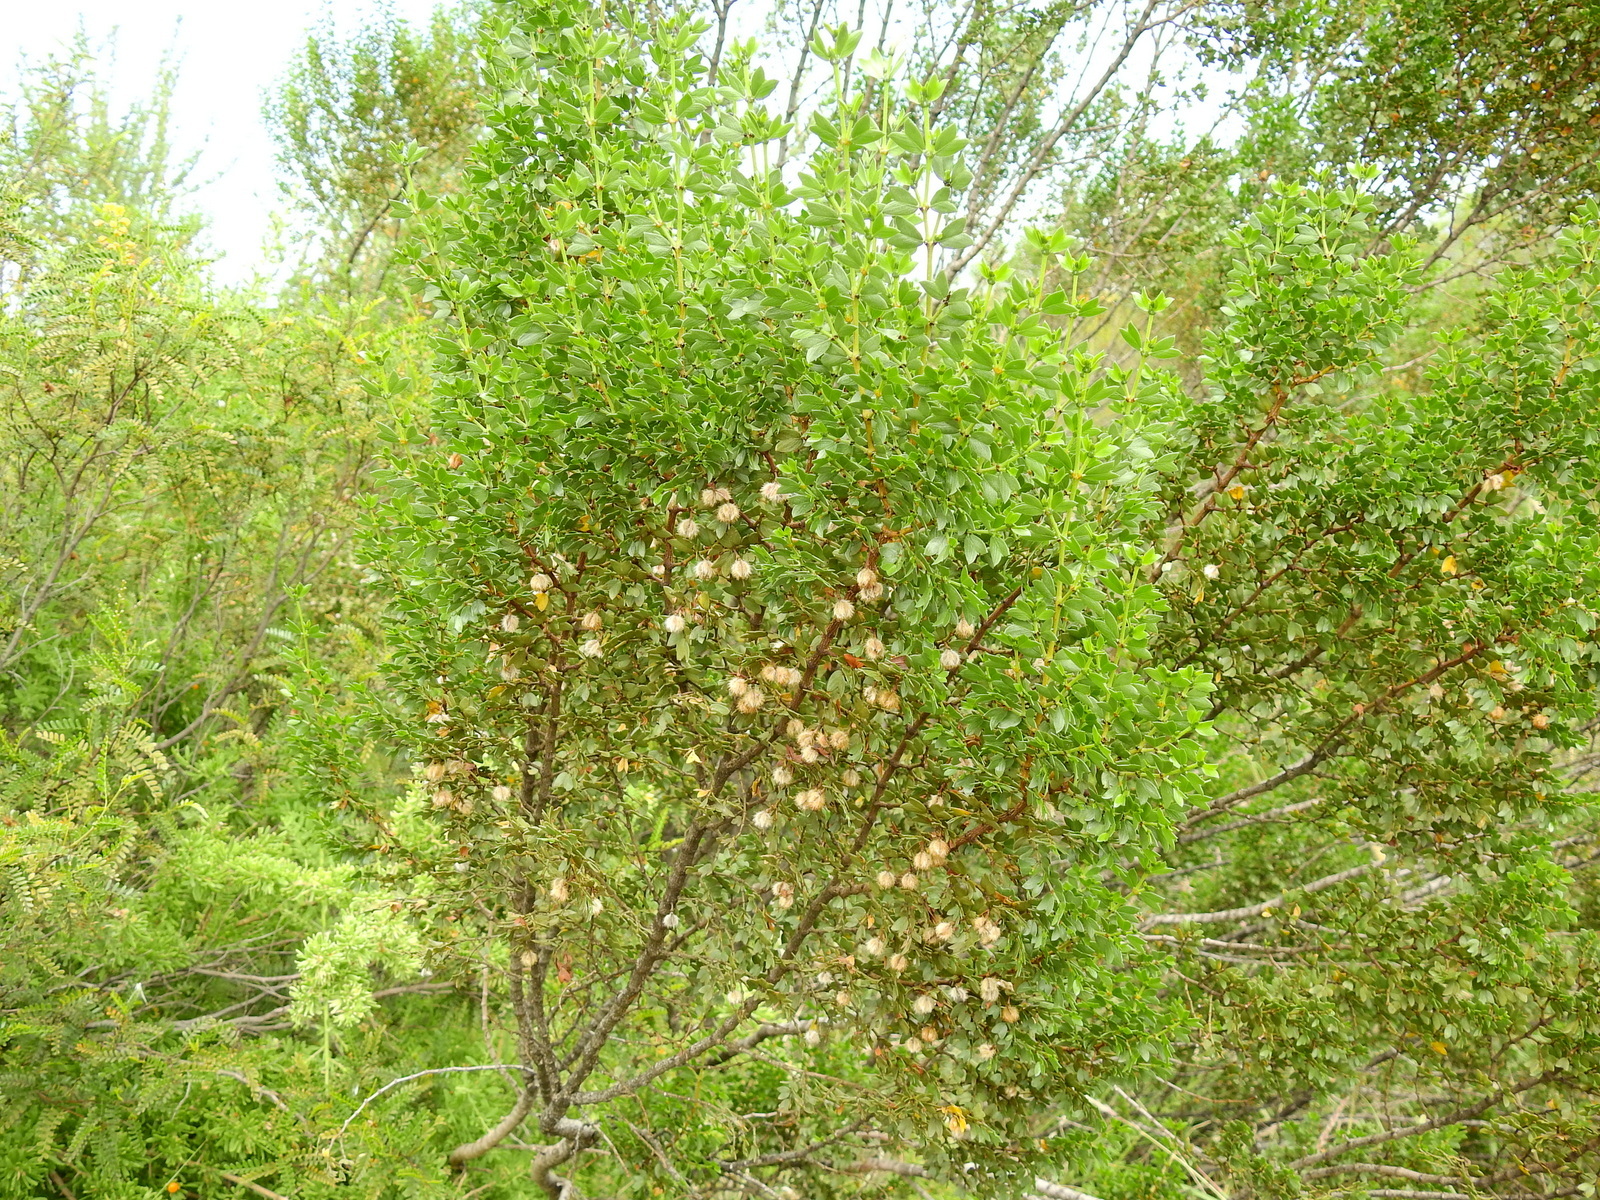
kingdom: Plantae
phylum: Tracheophyta
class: Magnoliopsida
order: Zygophyllales
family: Zygophyllaceae
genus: Larrea
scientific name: Larrea cuneifolia
